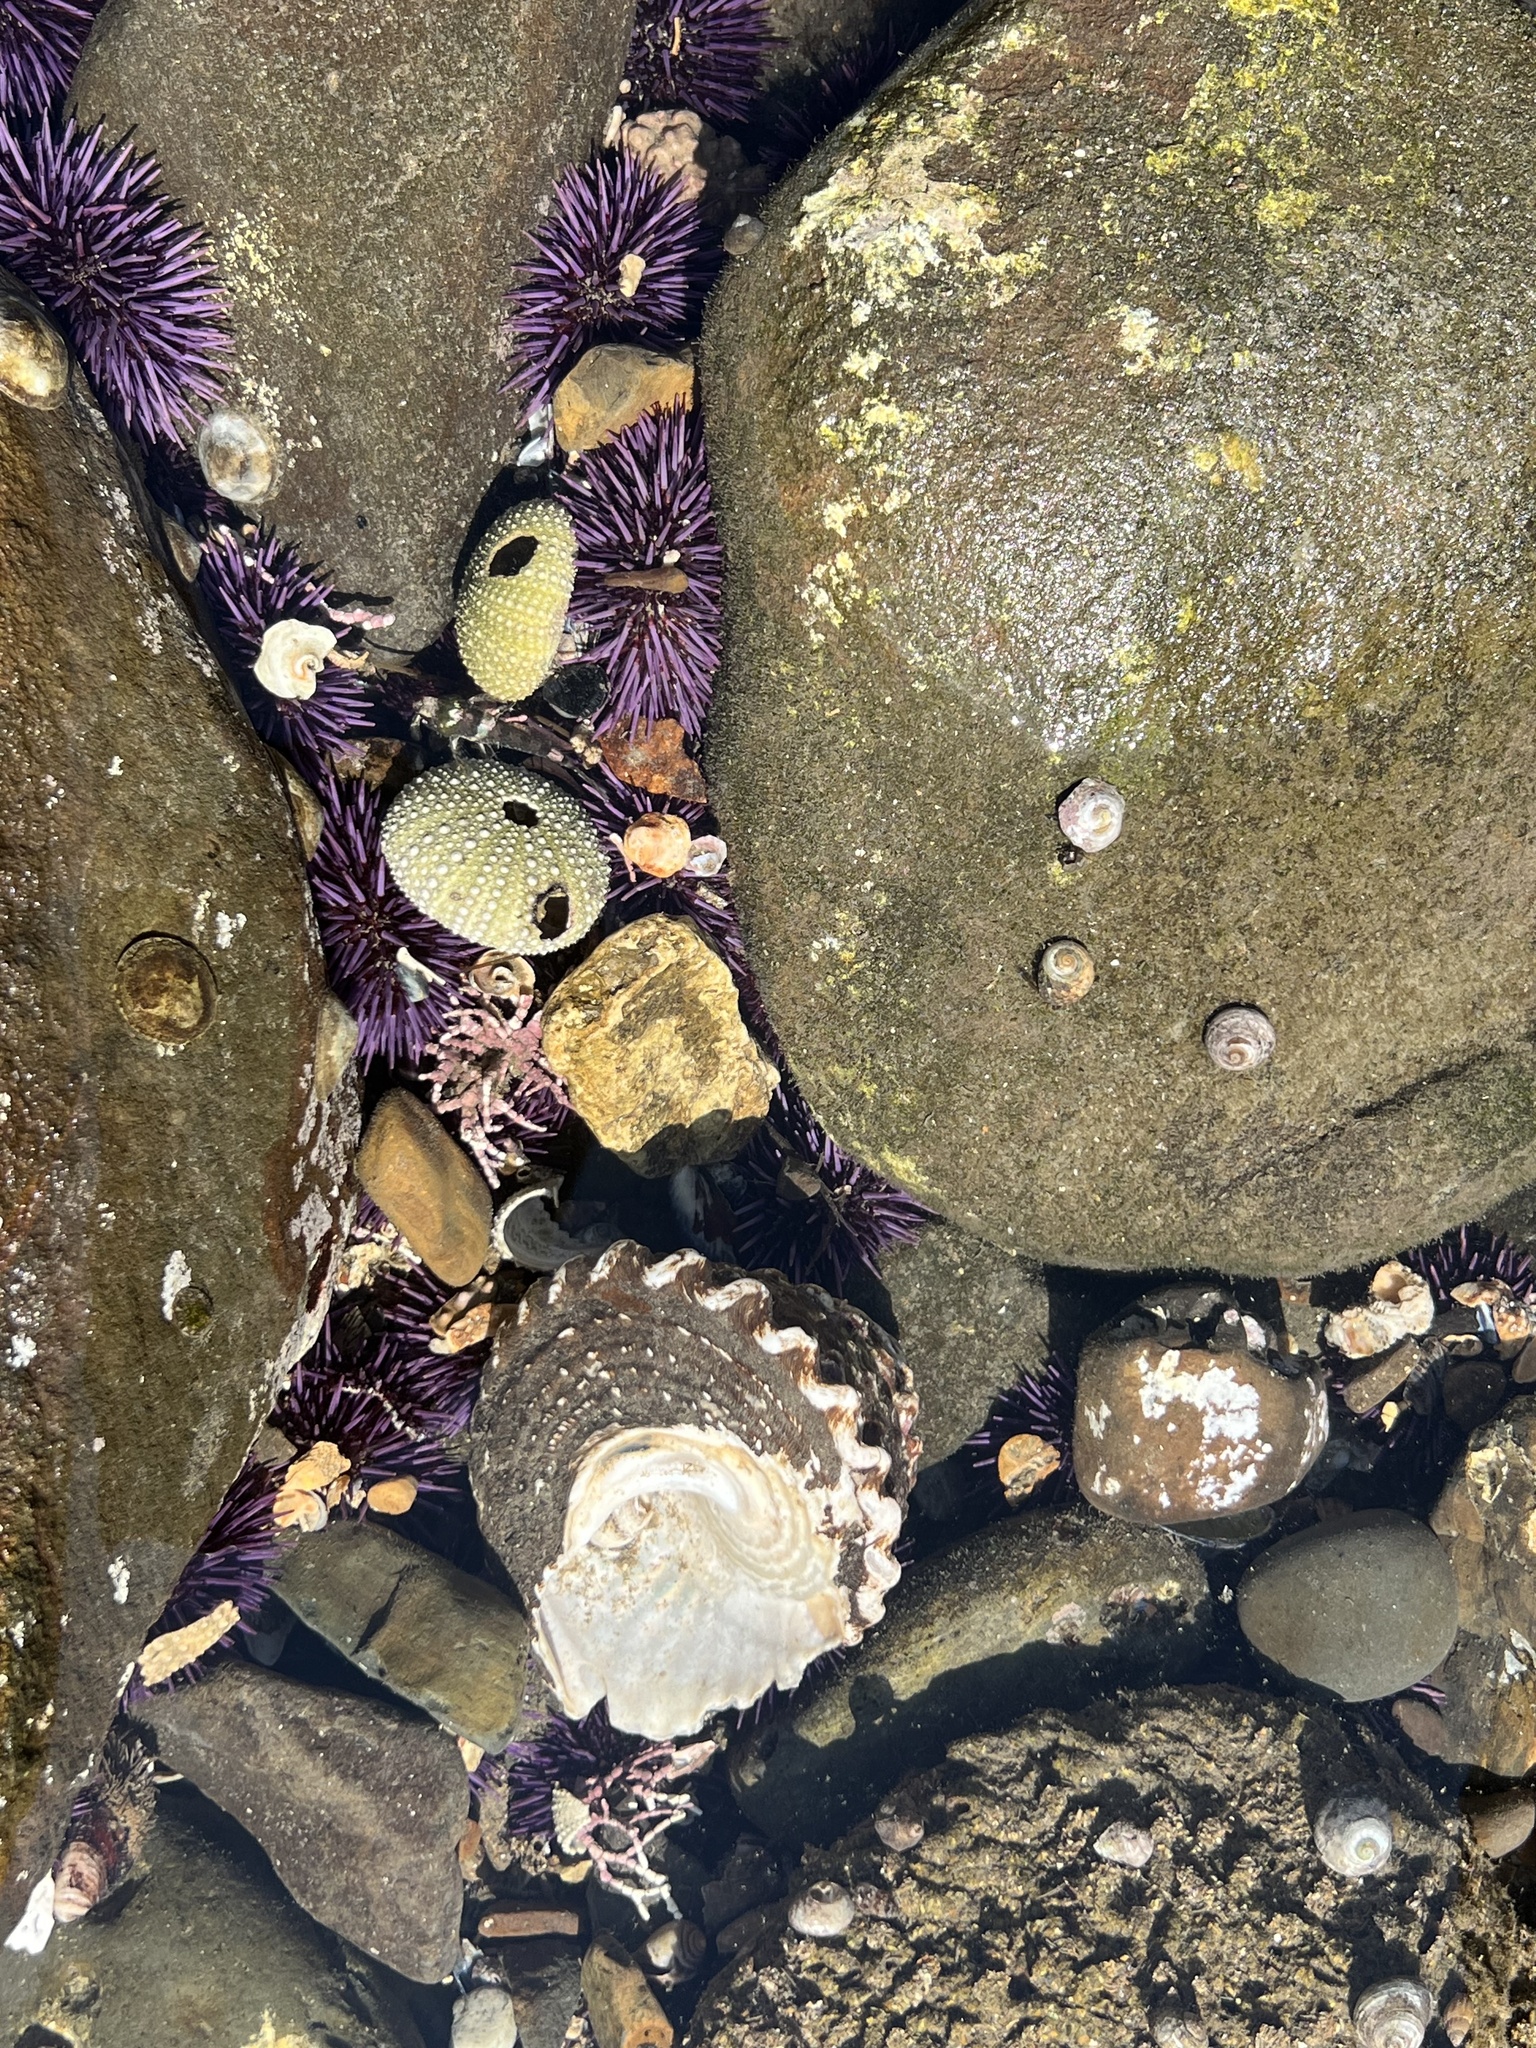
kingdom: Animalia
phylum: Echinodermata
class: Echinoidea
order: Camarodonta
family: Strongylocentrotidae
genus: Strongylocentrotus
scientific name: Strongylocentrotus purpuratus
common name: Purple sea urchin
